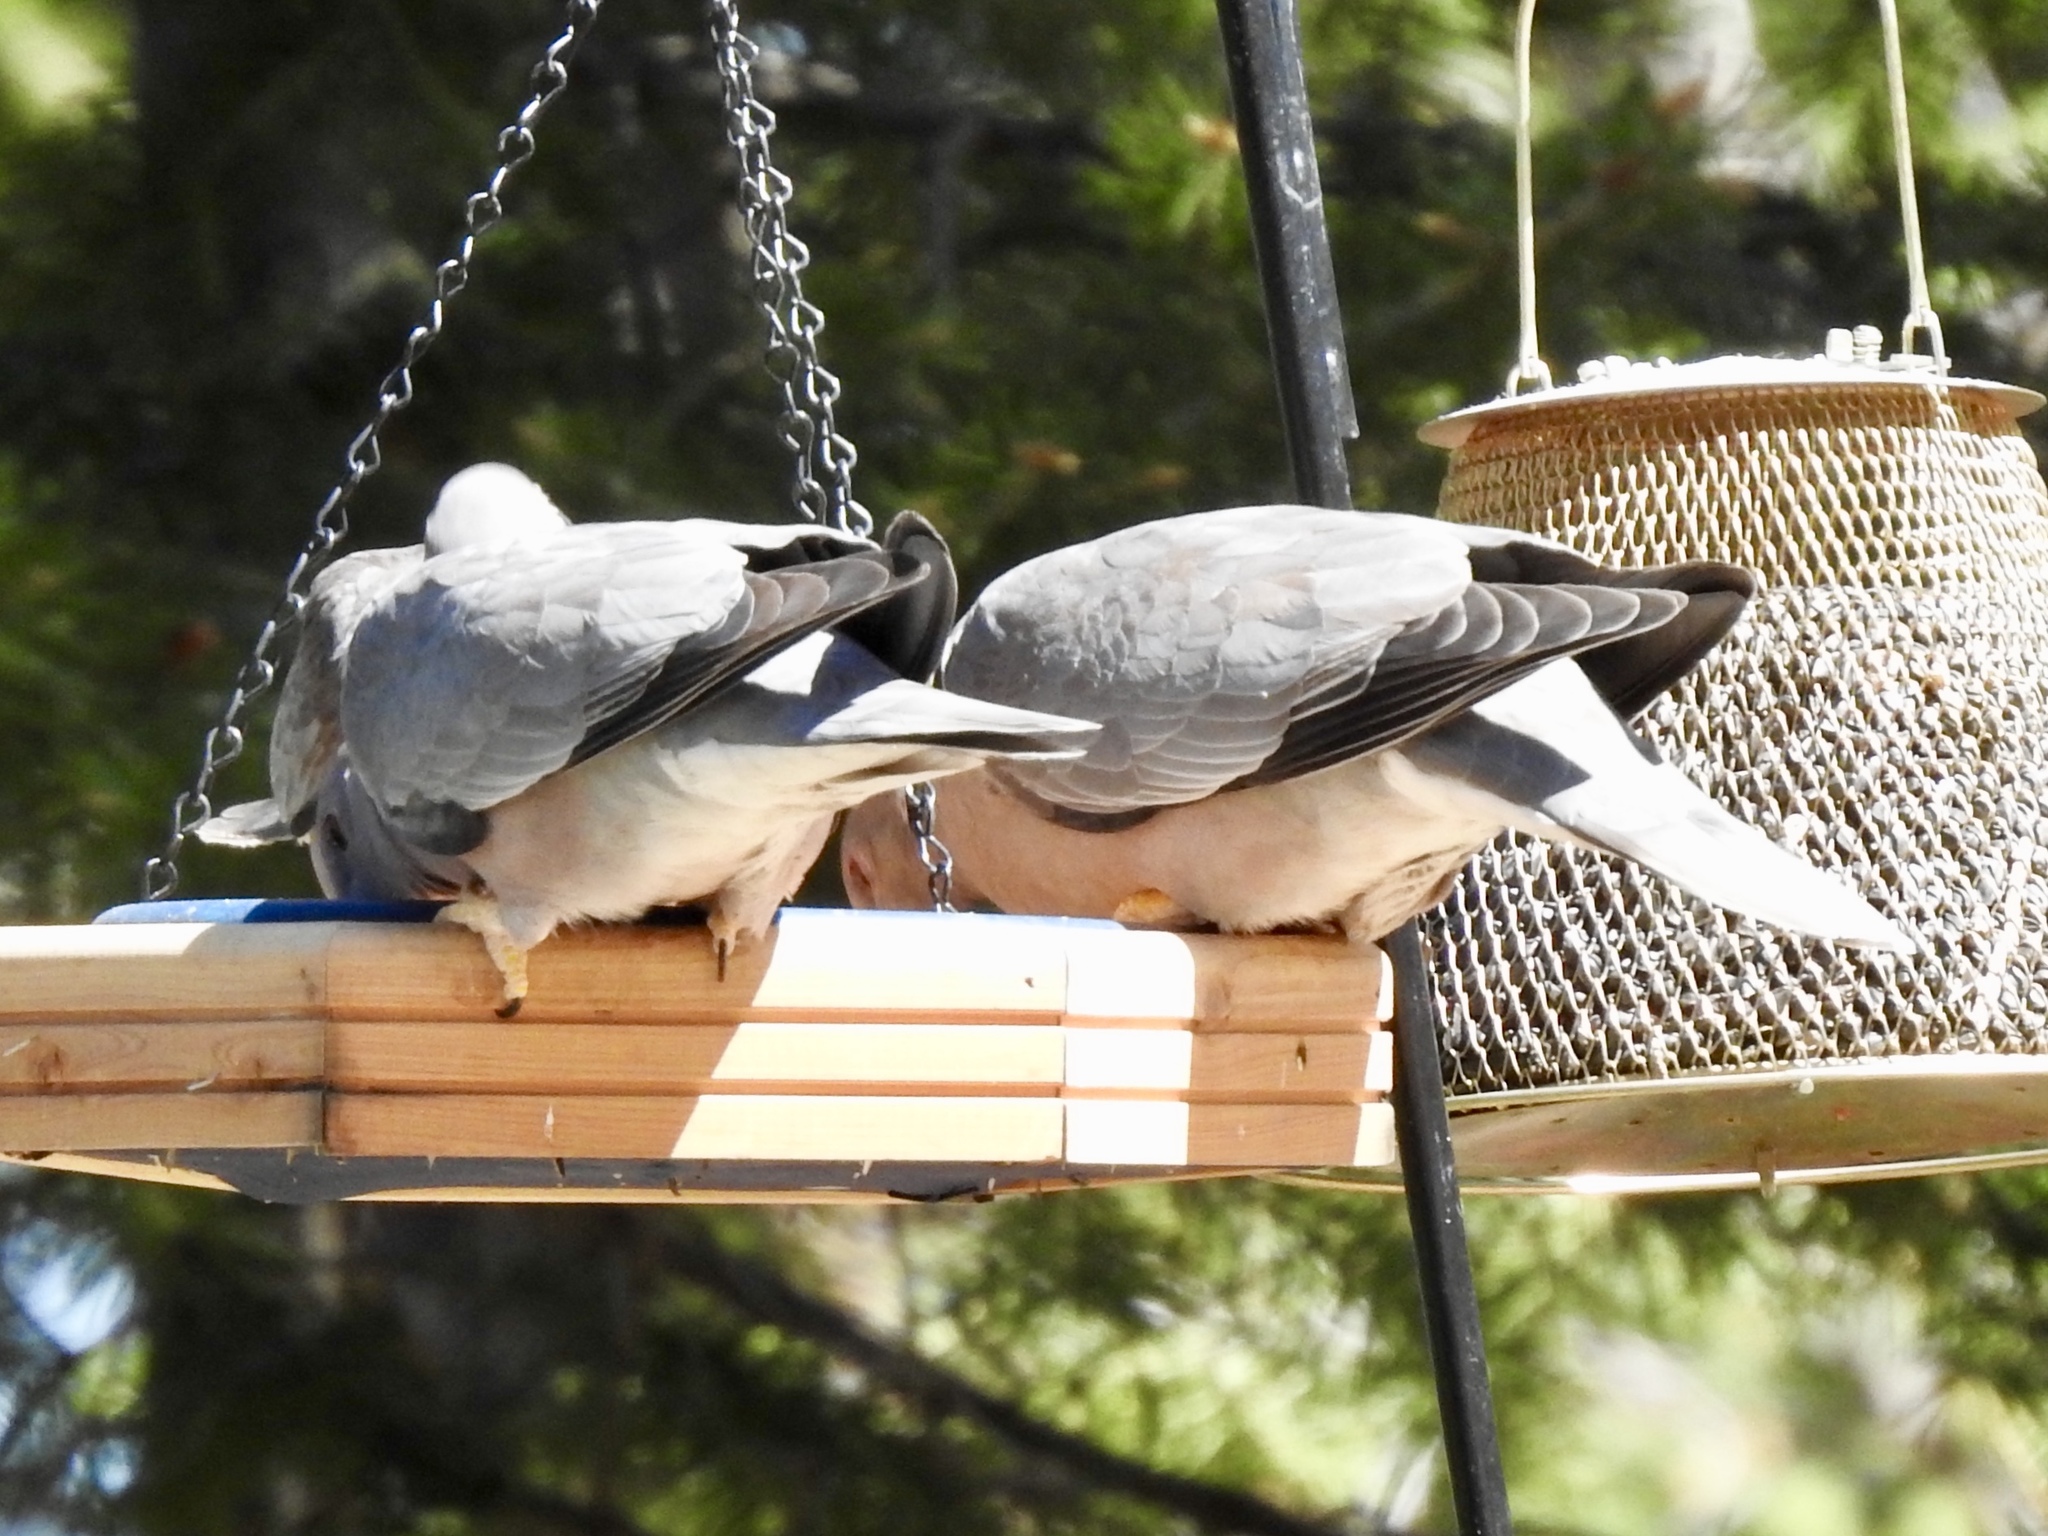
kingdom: Animalia
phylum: Chordata
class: Aves
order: Columbiformes
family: Columbidae
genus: Patagioenas
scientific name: Patagioenas fasciata
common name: Band-tailed pigeon
